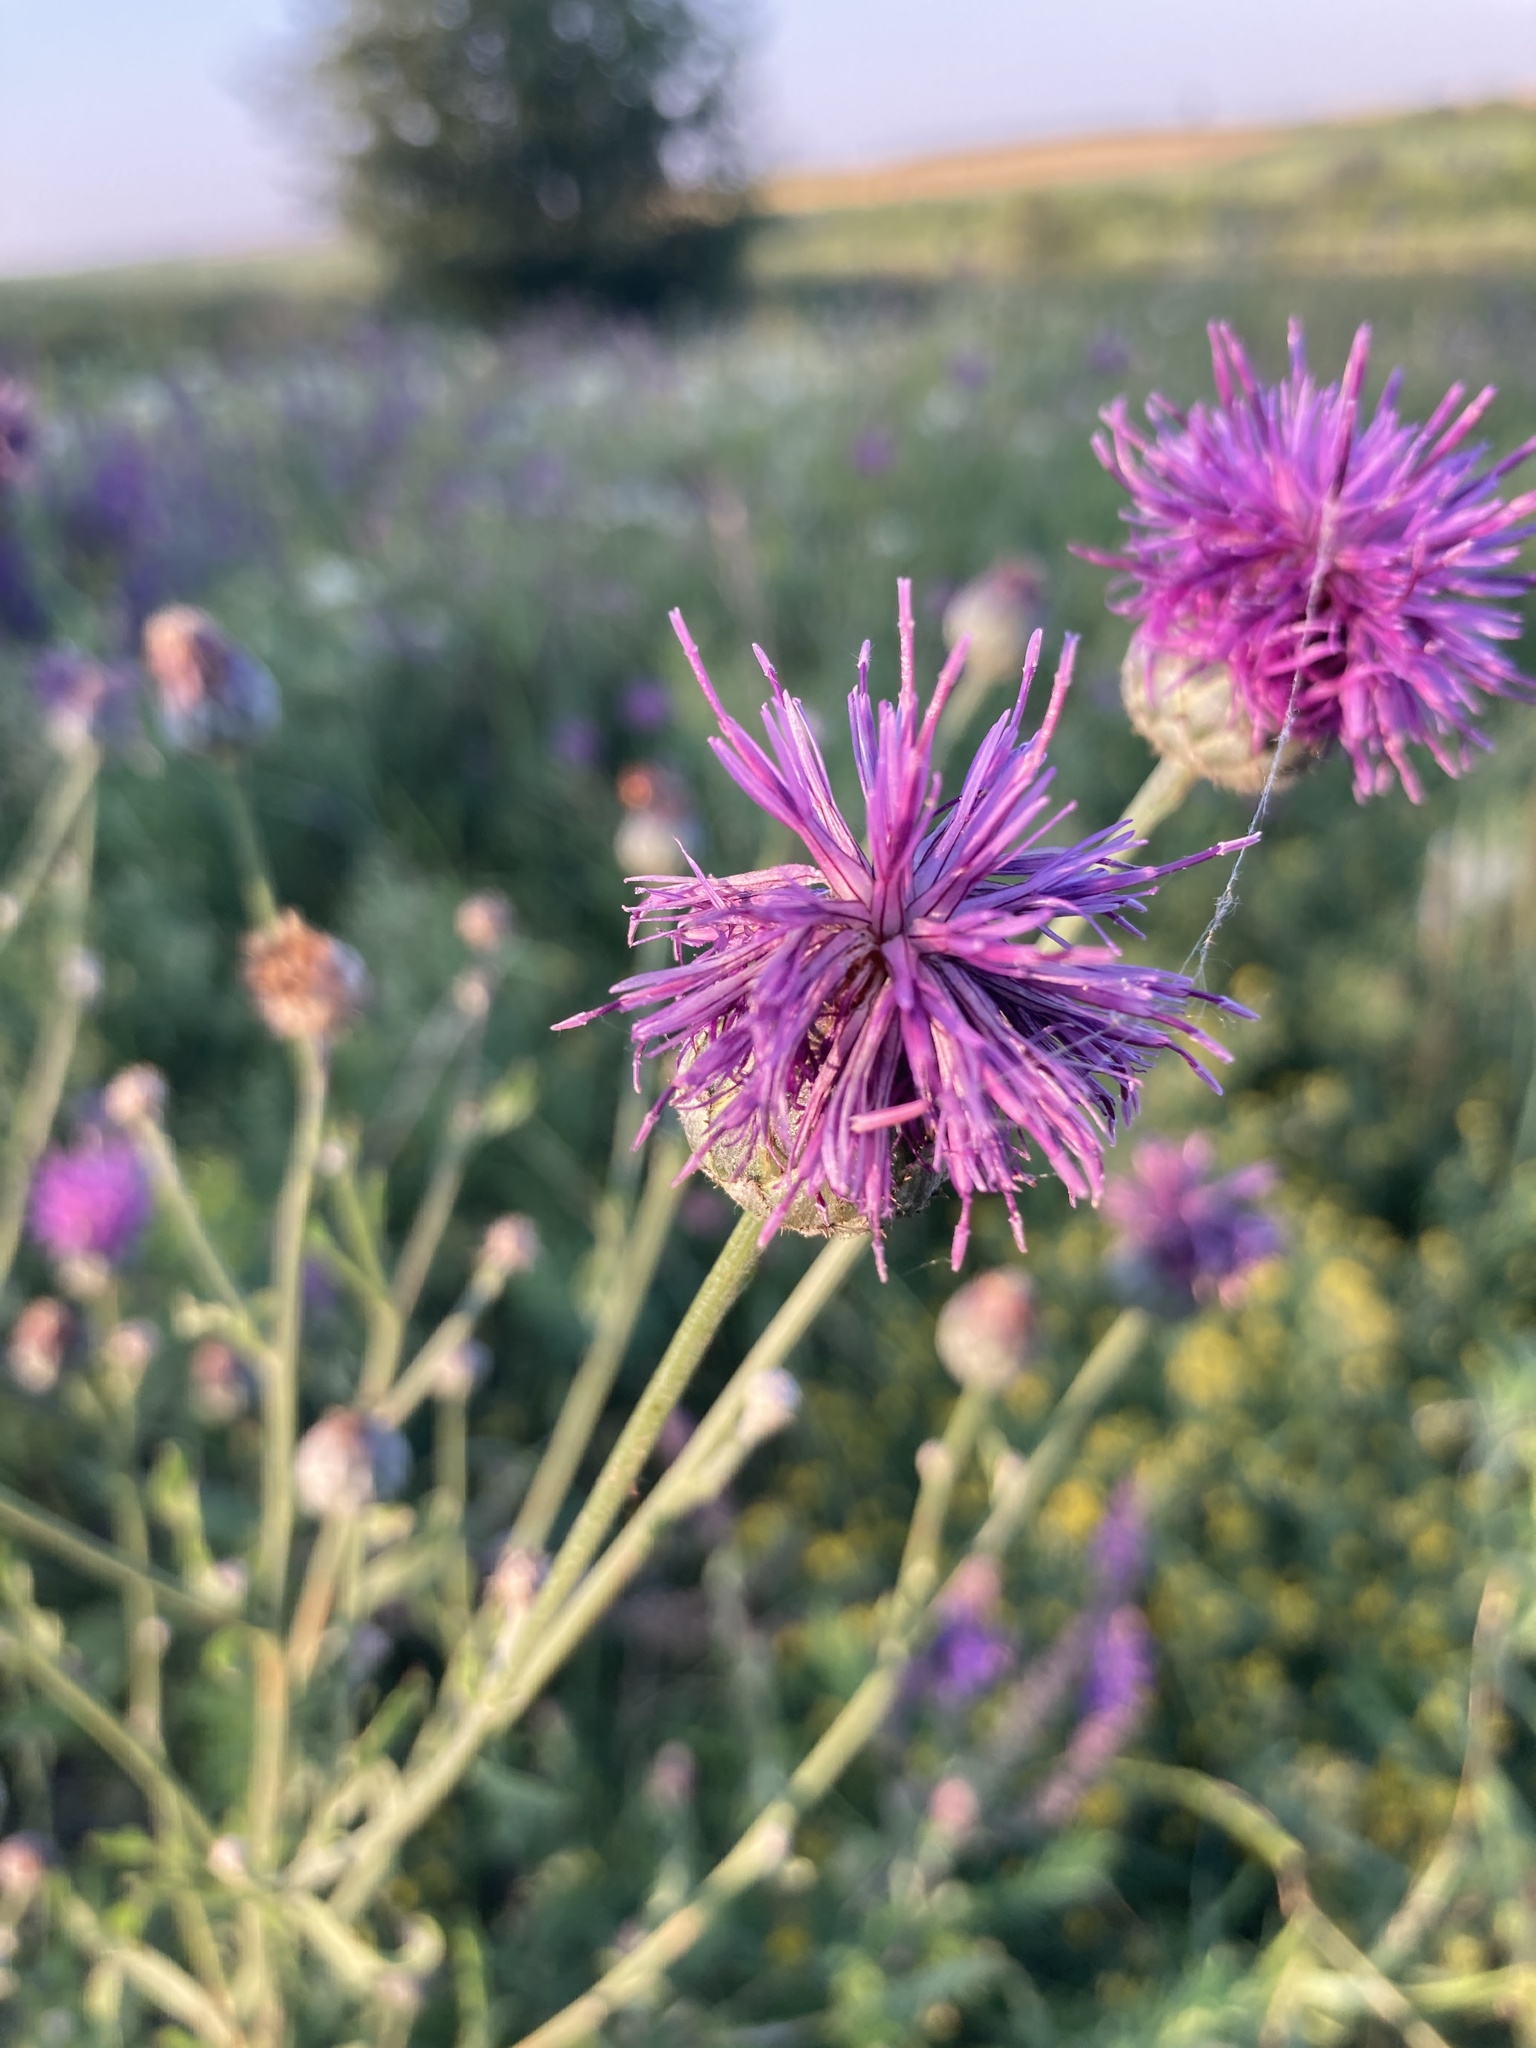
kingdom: Plantae
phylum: Tracheophyta
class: Magnoliopsida
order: Asterales
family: Asteraceae
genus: Centaurea
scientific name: Centaurea apiculata
